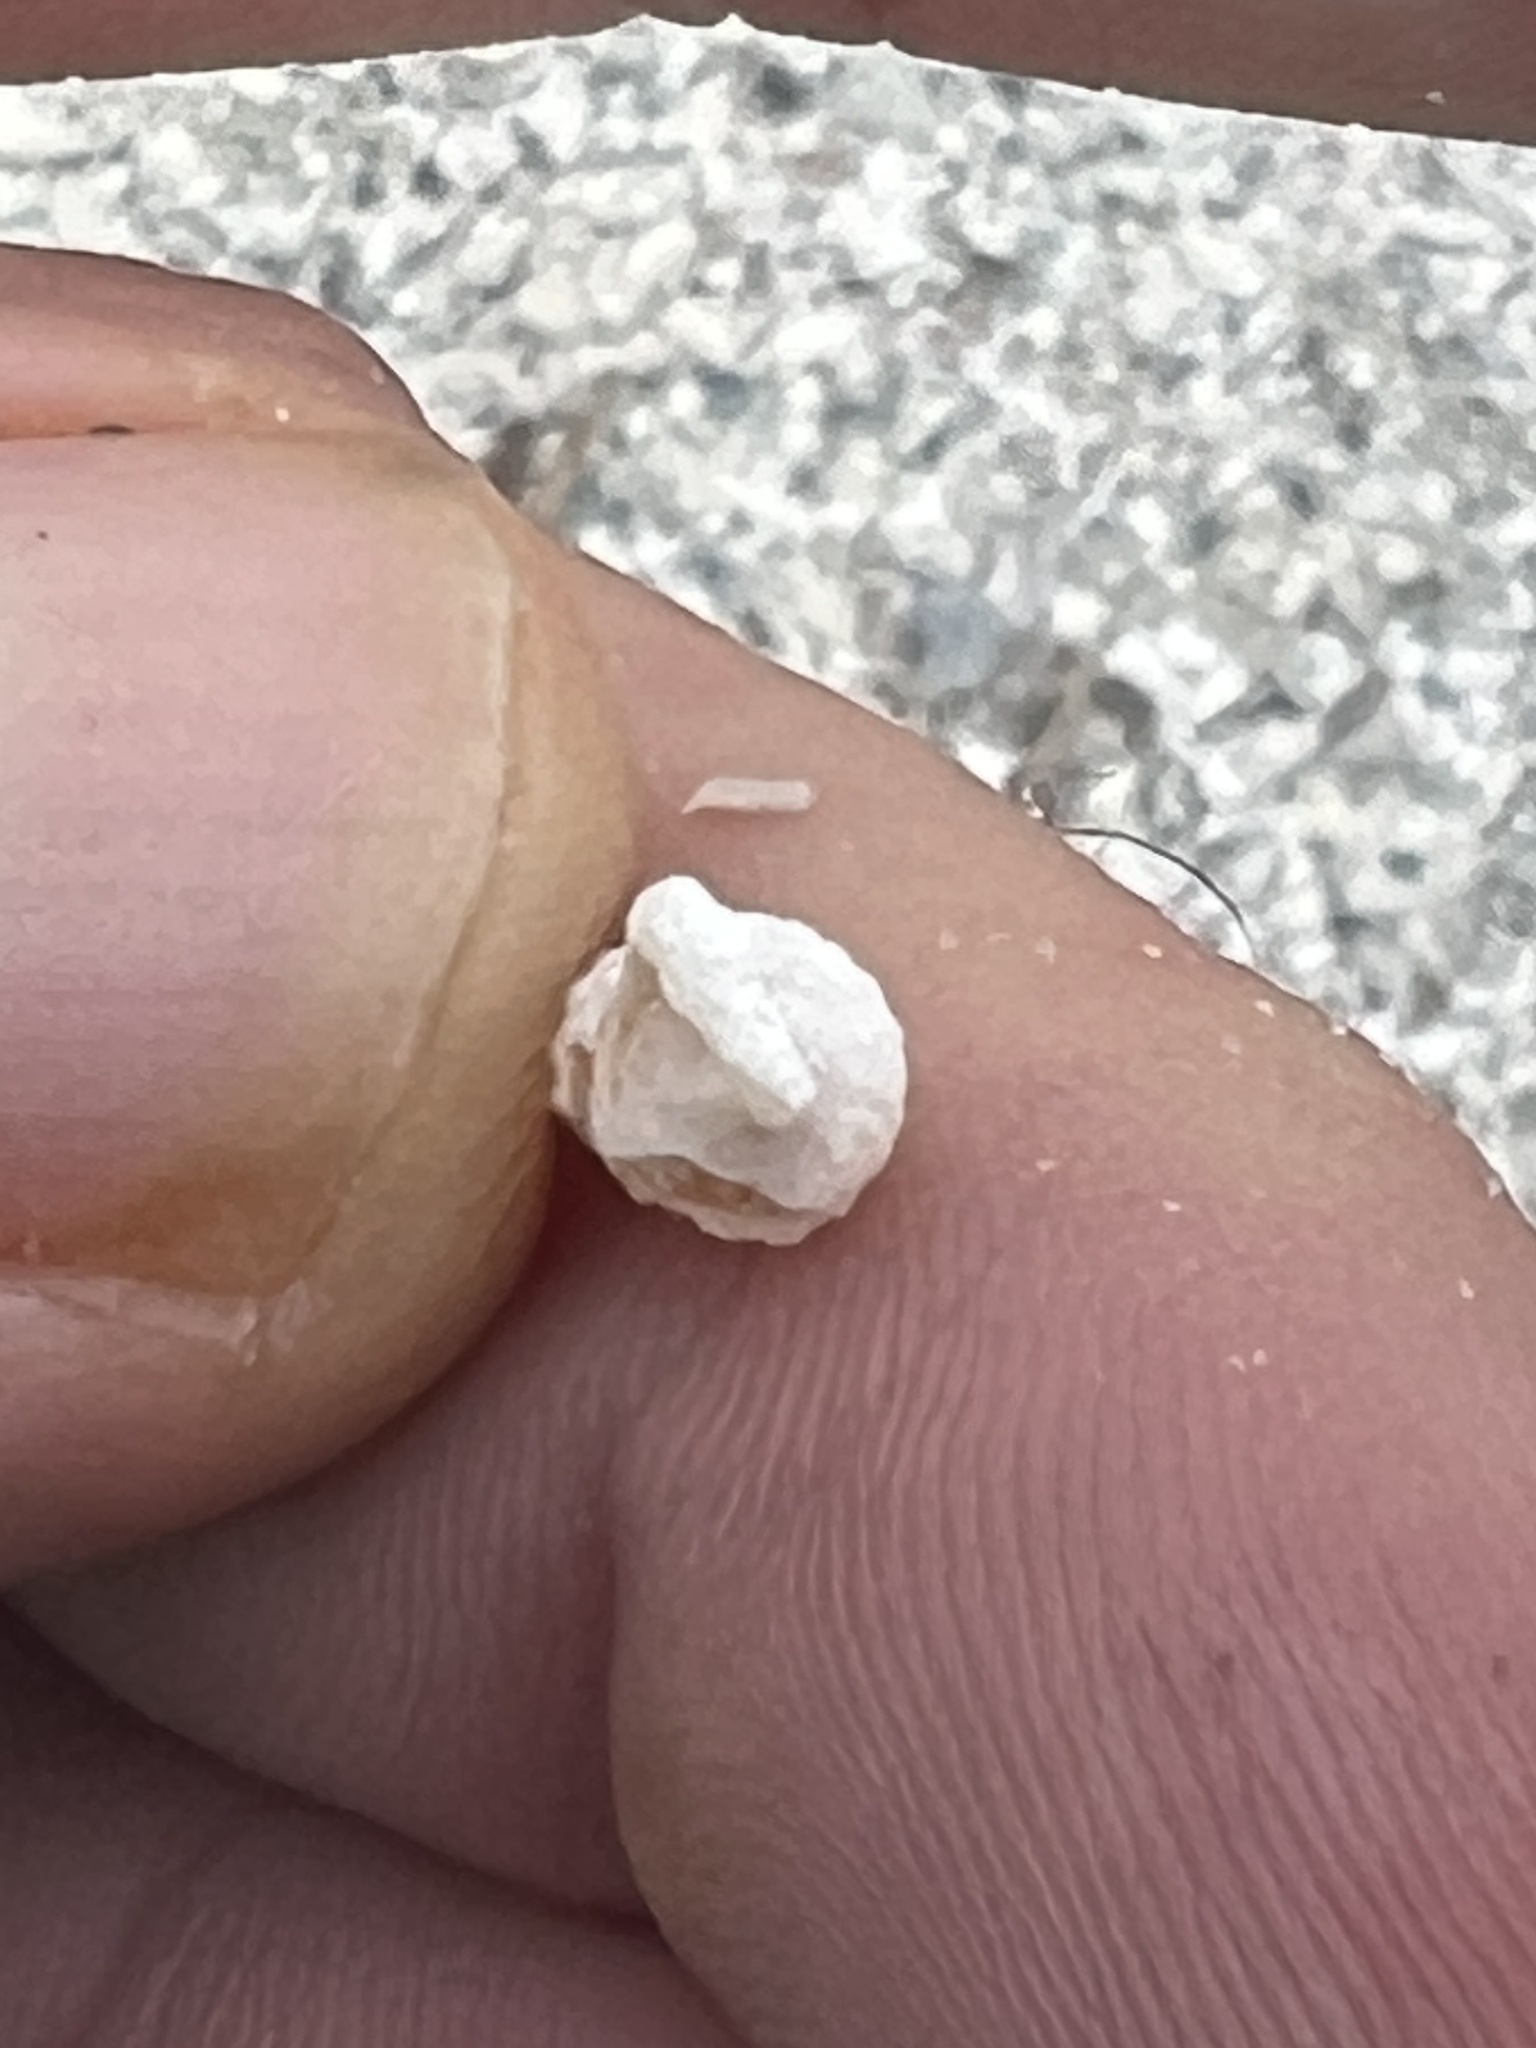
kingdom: Animalia
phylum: Mollusca
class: Gastropoda
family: Potamididae
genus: Cerithideopsis
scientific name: Cerithideopsis scalariformis
